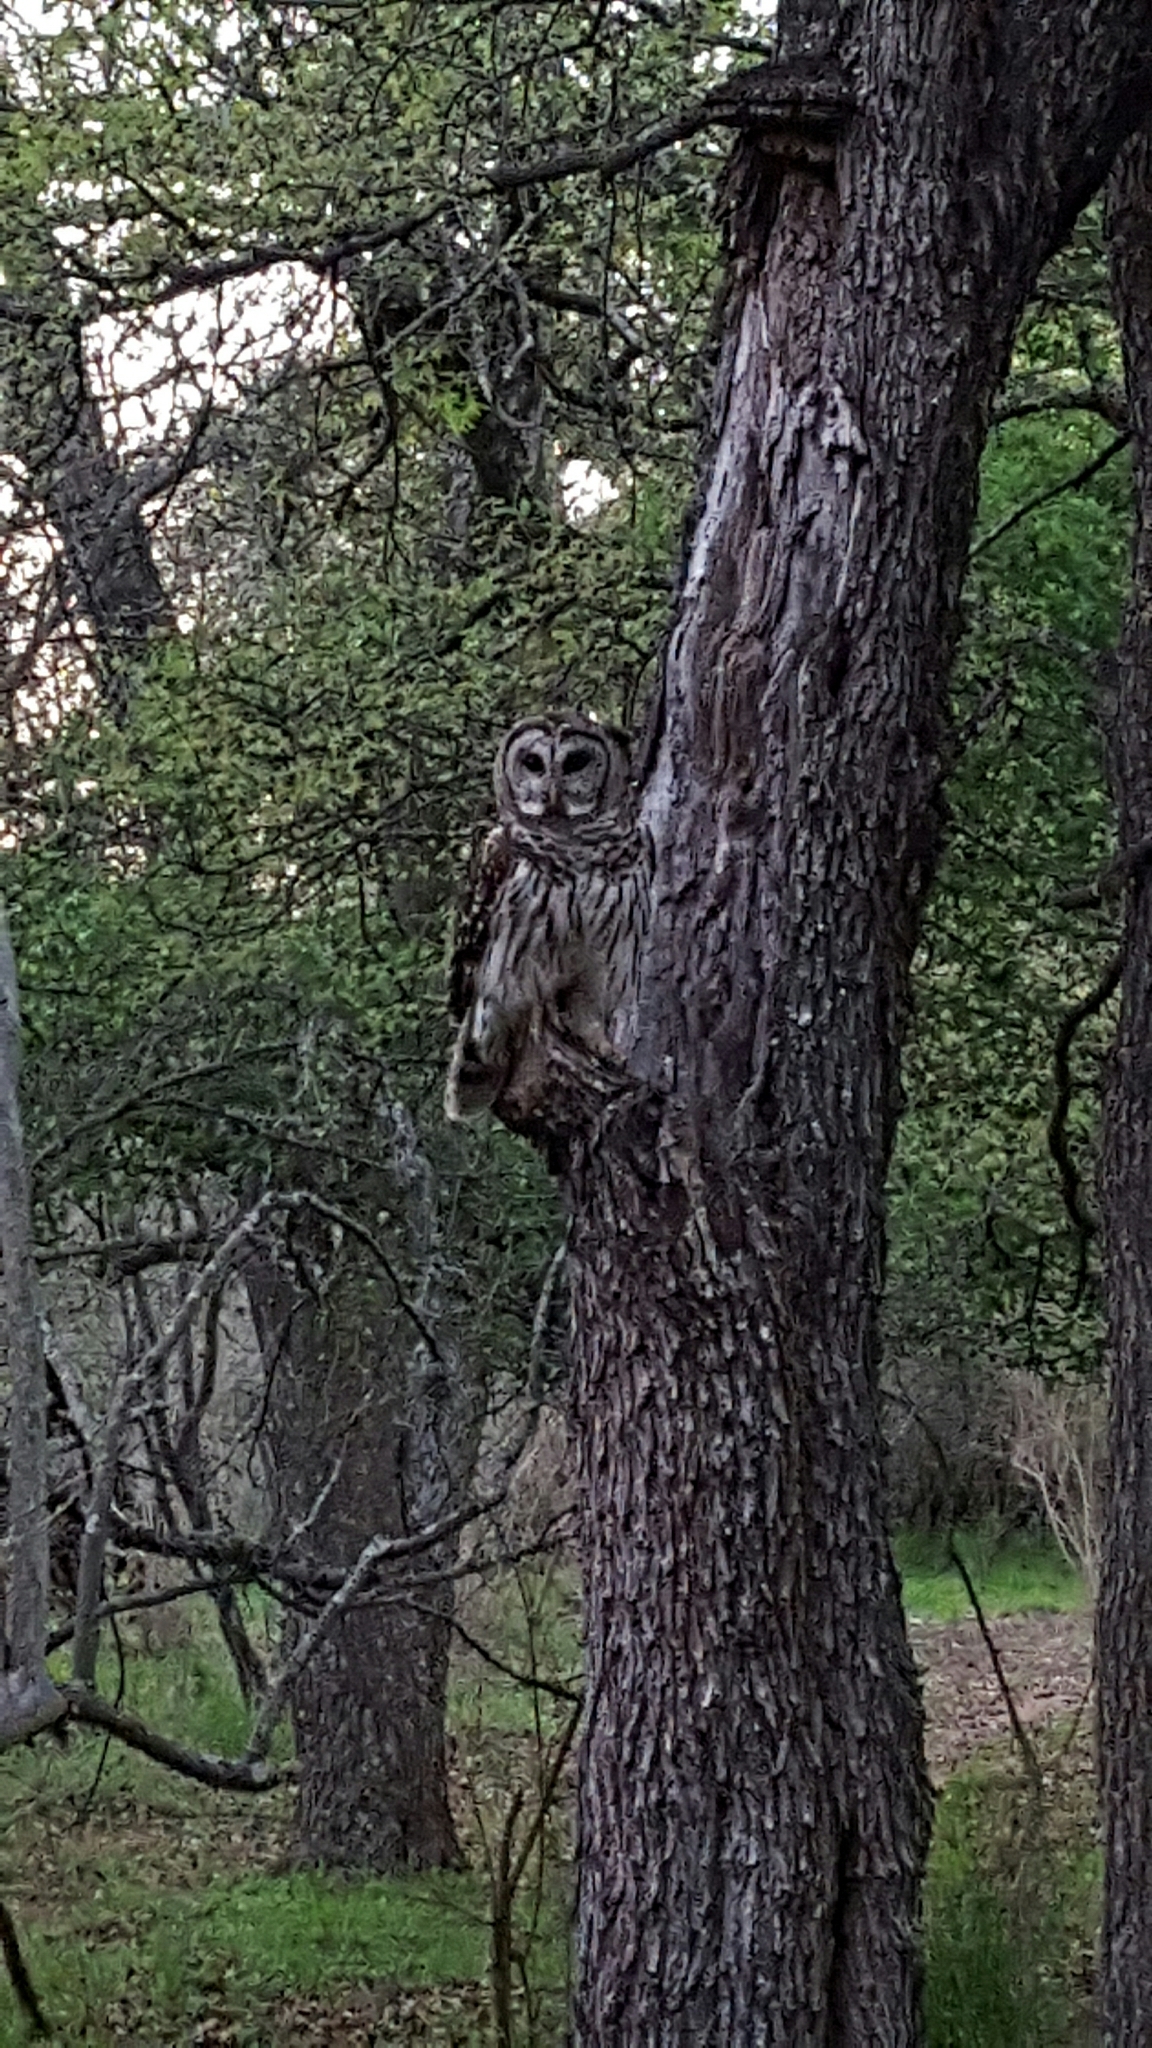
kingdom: Animalia
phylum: Chordata
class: Aves
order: Strigiformes
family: Strigidae
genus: Strix
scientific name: Strix varia
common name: Barred owl
